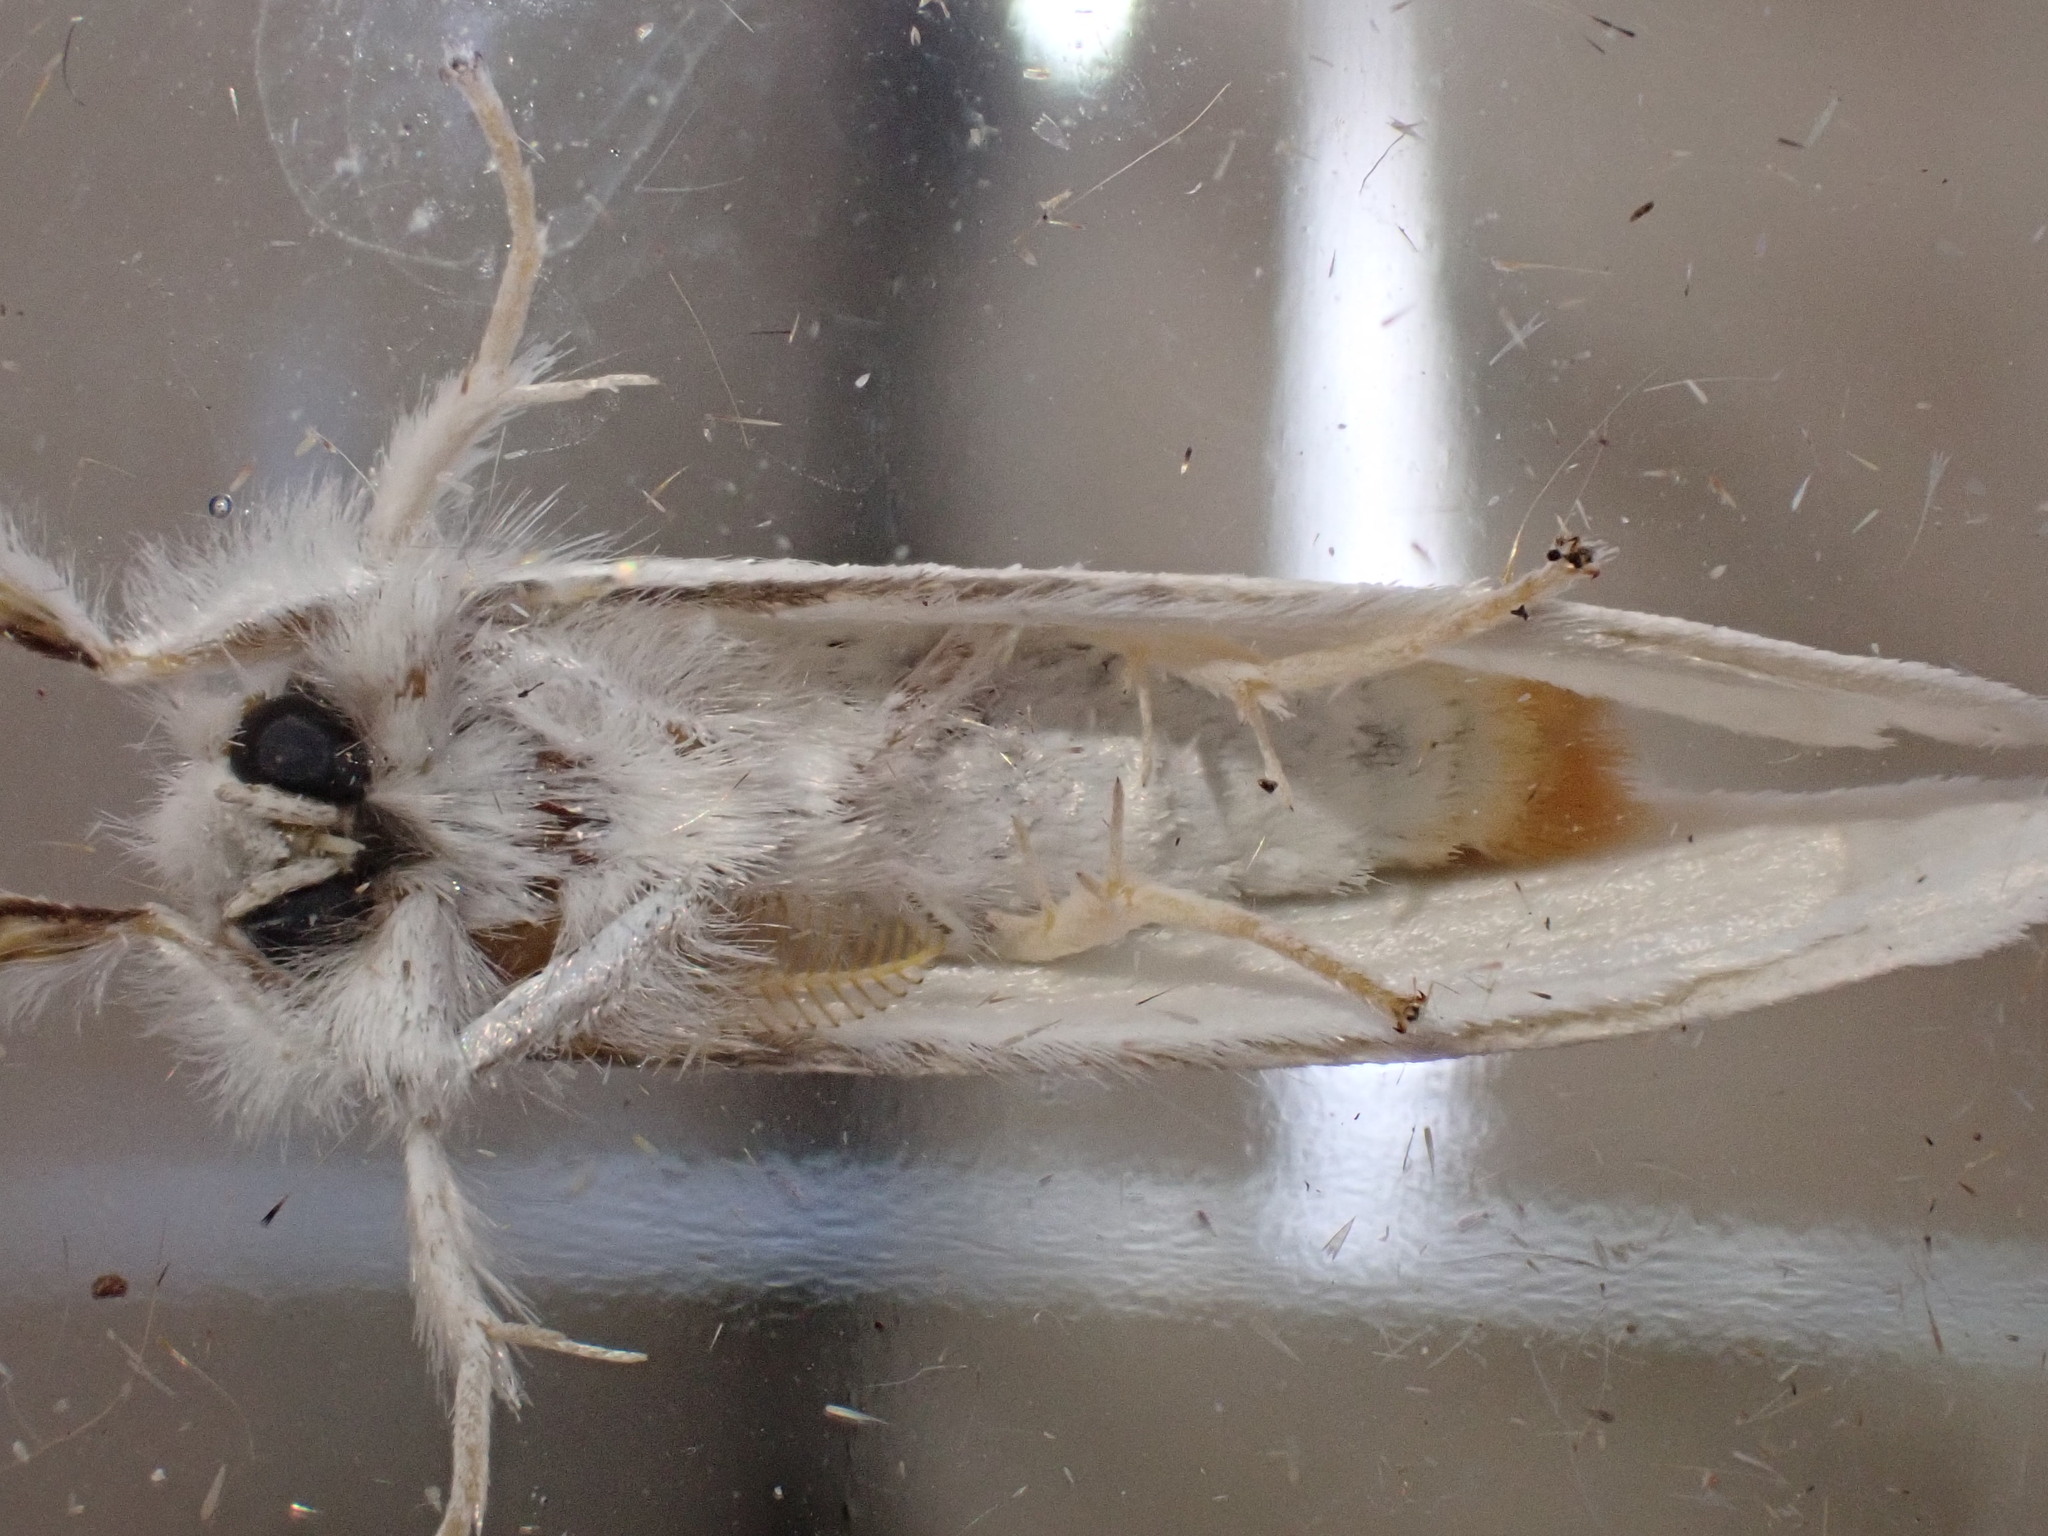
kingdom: Animalia
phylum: Arthropoda
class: Insecta
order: Lepidoptera
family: Erebidae
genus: Sphrageidus
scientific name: Sphrageidus similis
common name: Yellow-tail
